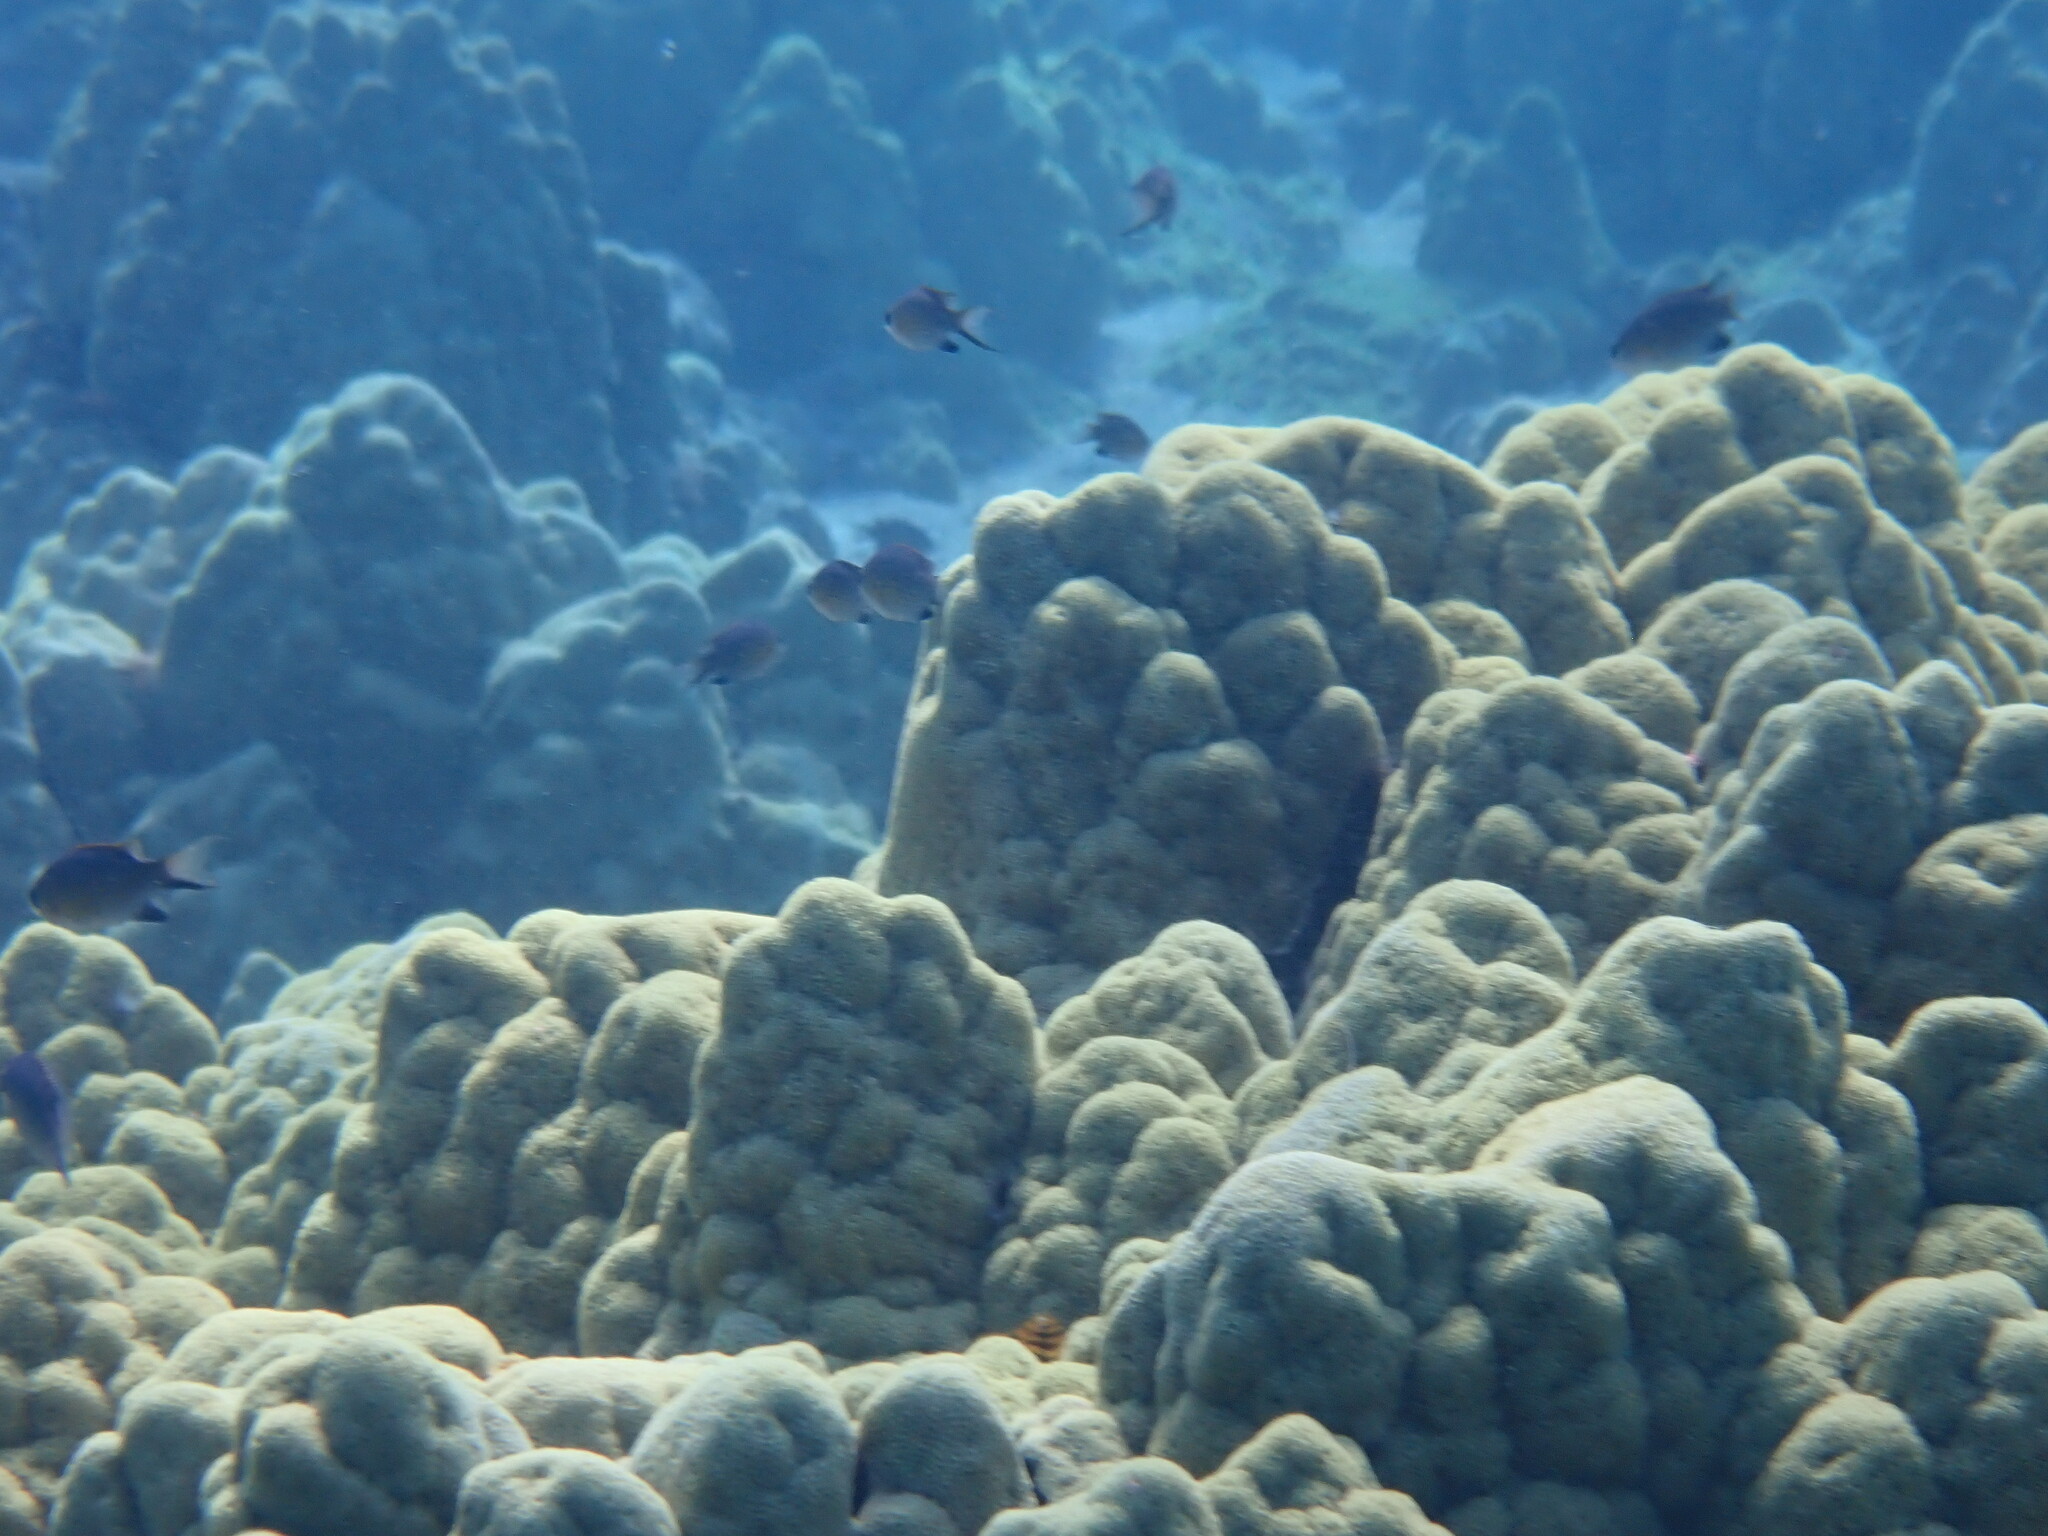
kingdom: Animalia
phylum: Chordata
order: Perciformes
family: Pomacentridae
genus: Chromis
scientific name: Chromis vanderbilti
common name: Vanderbilt's chromis
